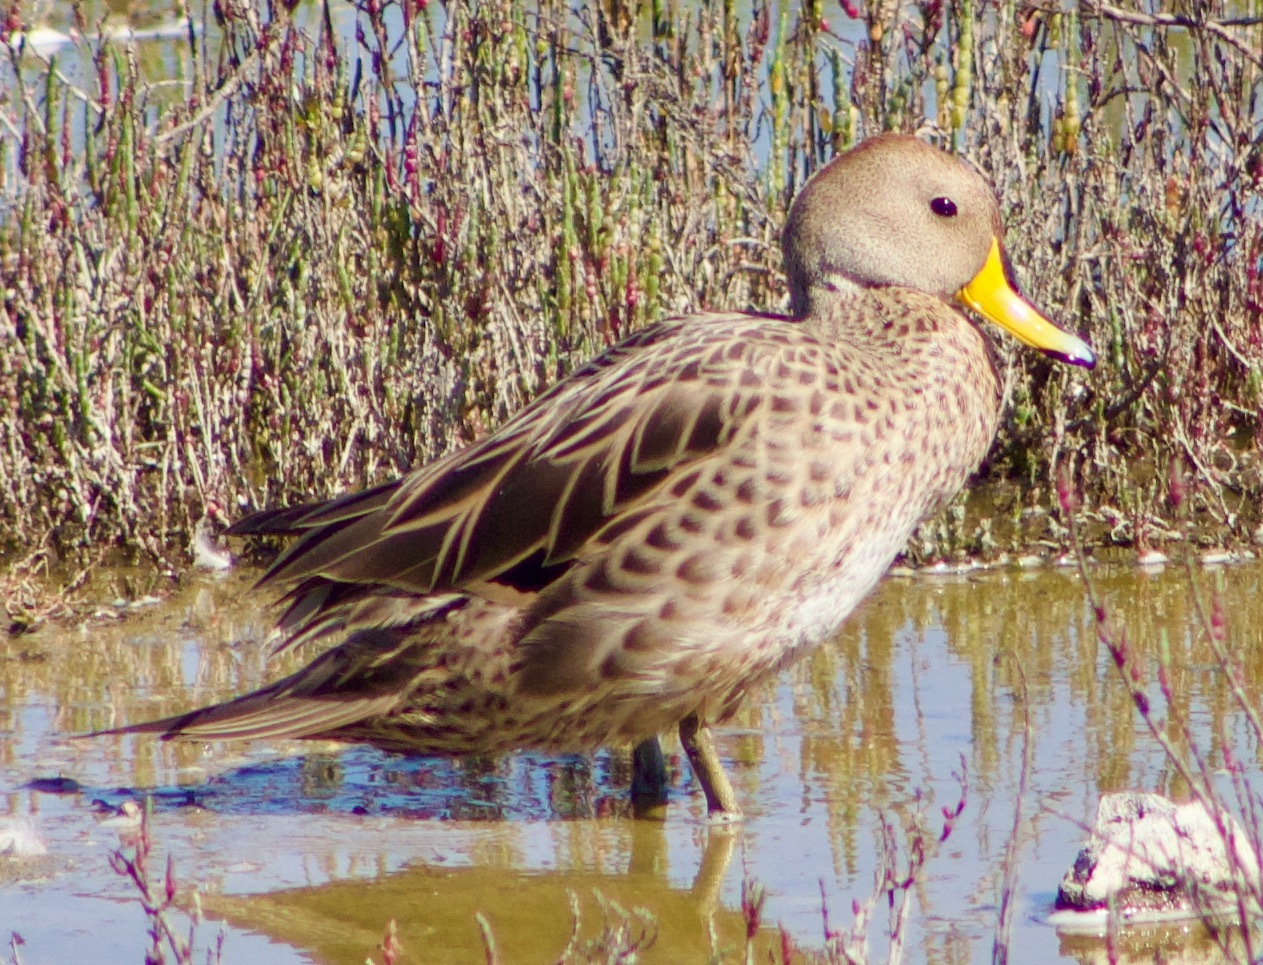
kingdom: Animalia
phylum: Chordata
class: Aves
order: Anseriformes
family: Anatidae
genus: Anas
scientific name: Anas georgica
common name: Yellow-billed pintail
